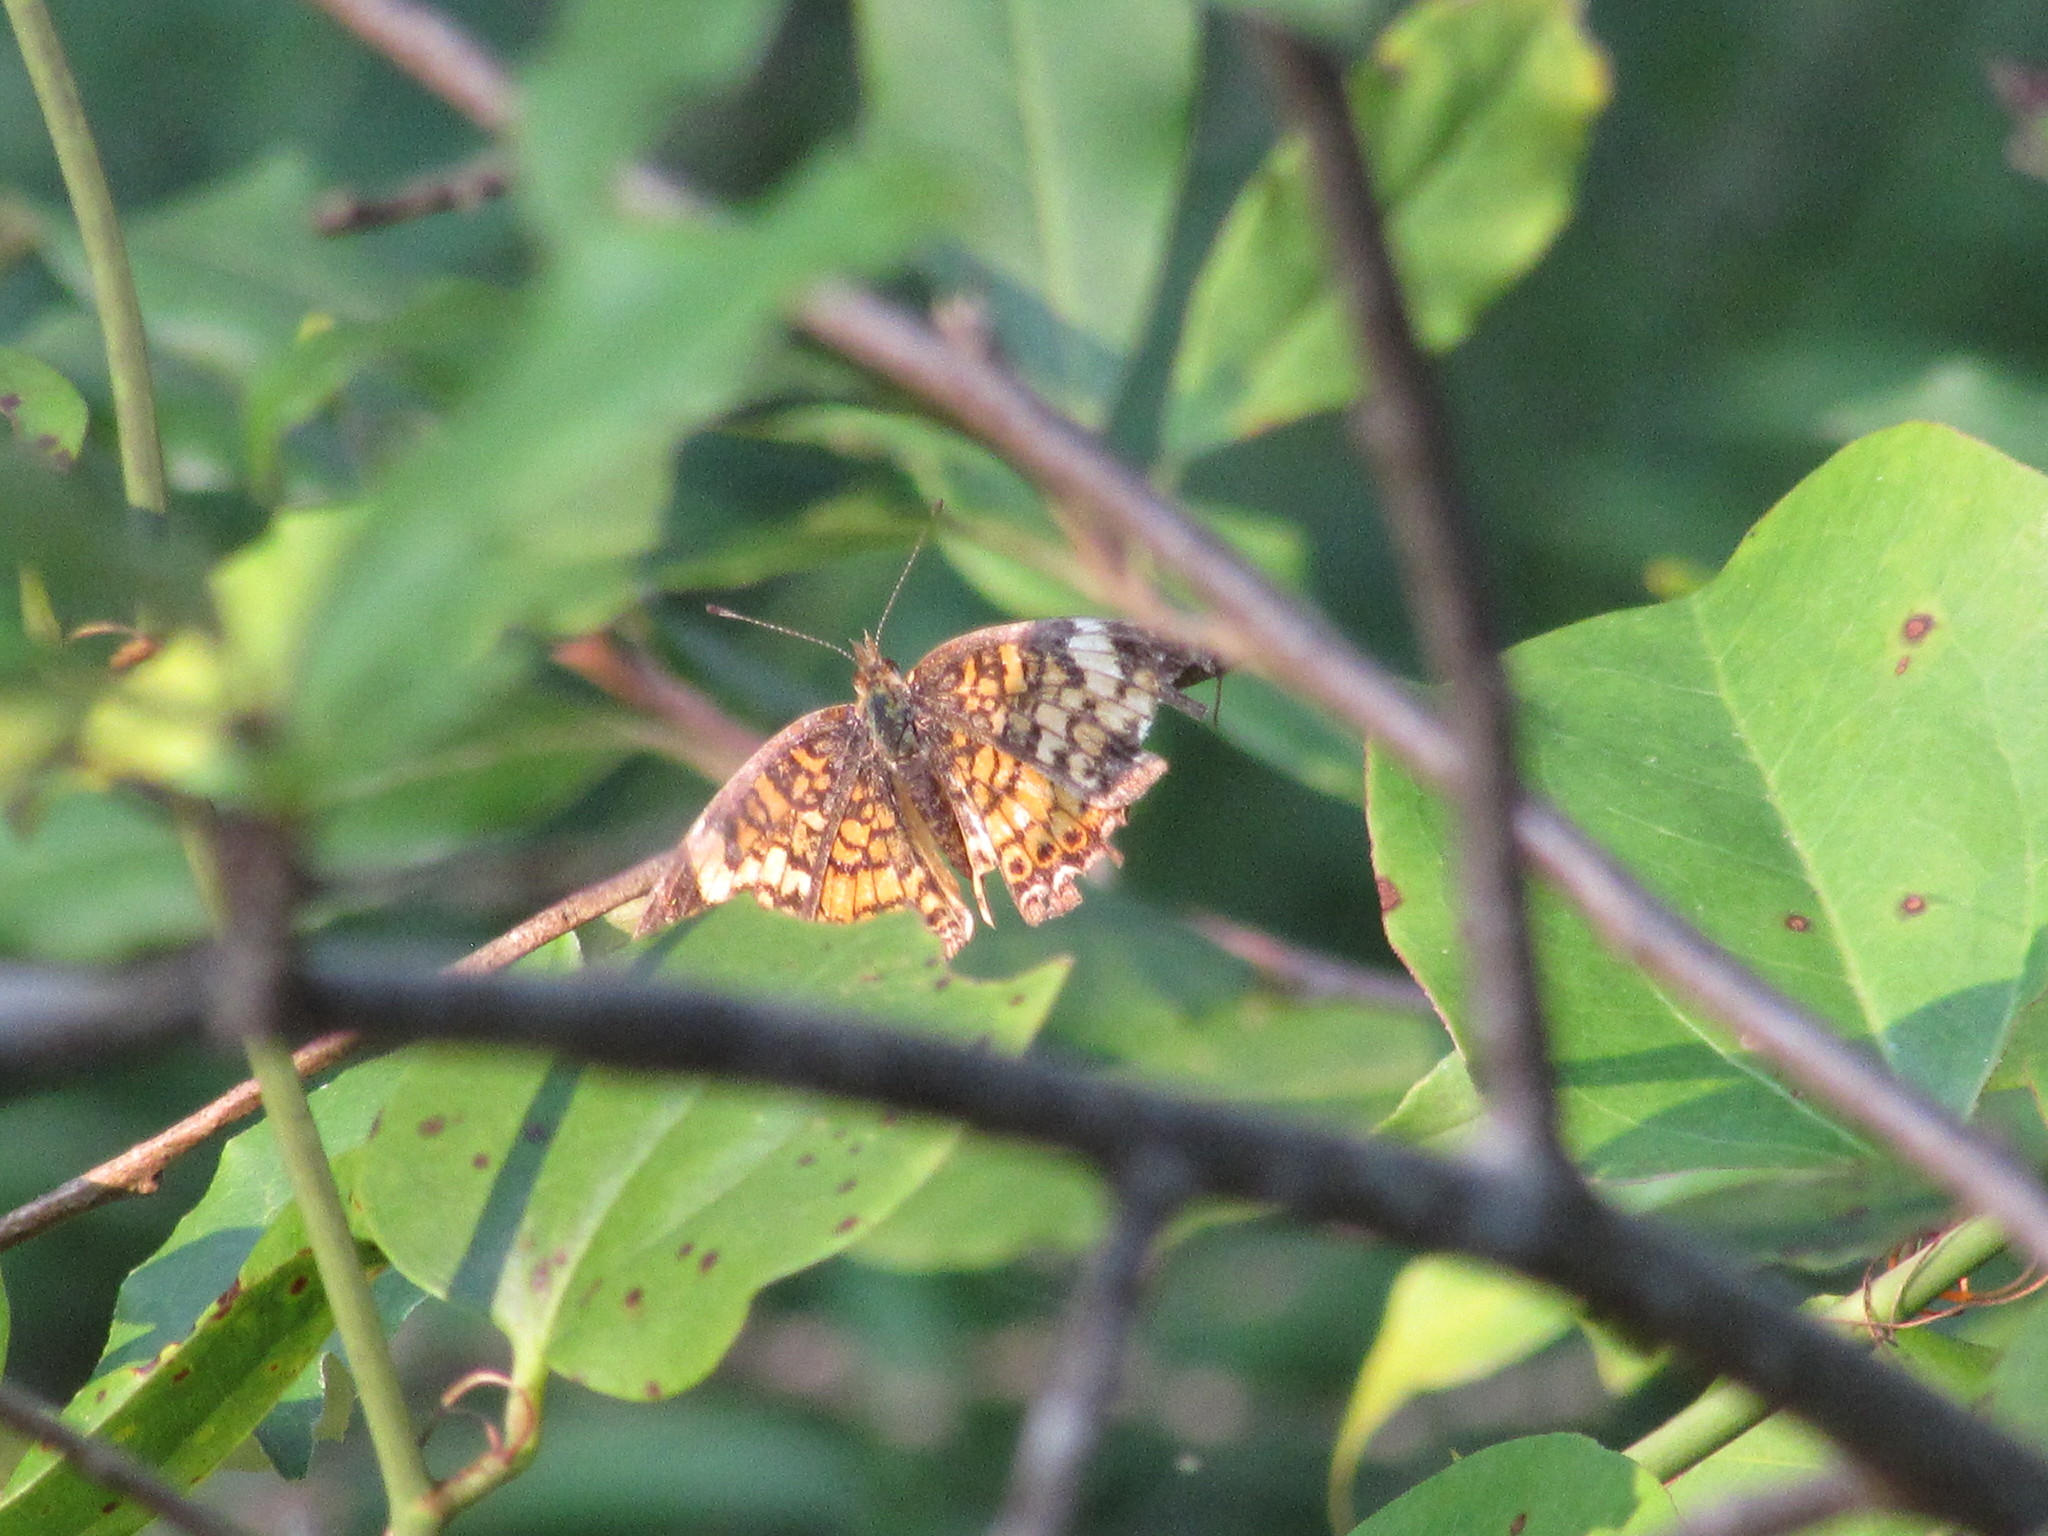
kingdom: Animalia
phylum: Arthropoda
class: Insecta
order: Lepidoptera
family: Nymphalidae
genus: Phyciodes
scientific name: Phyciodes tharos
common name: Pearl crescent
